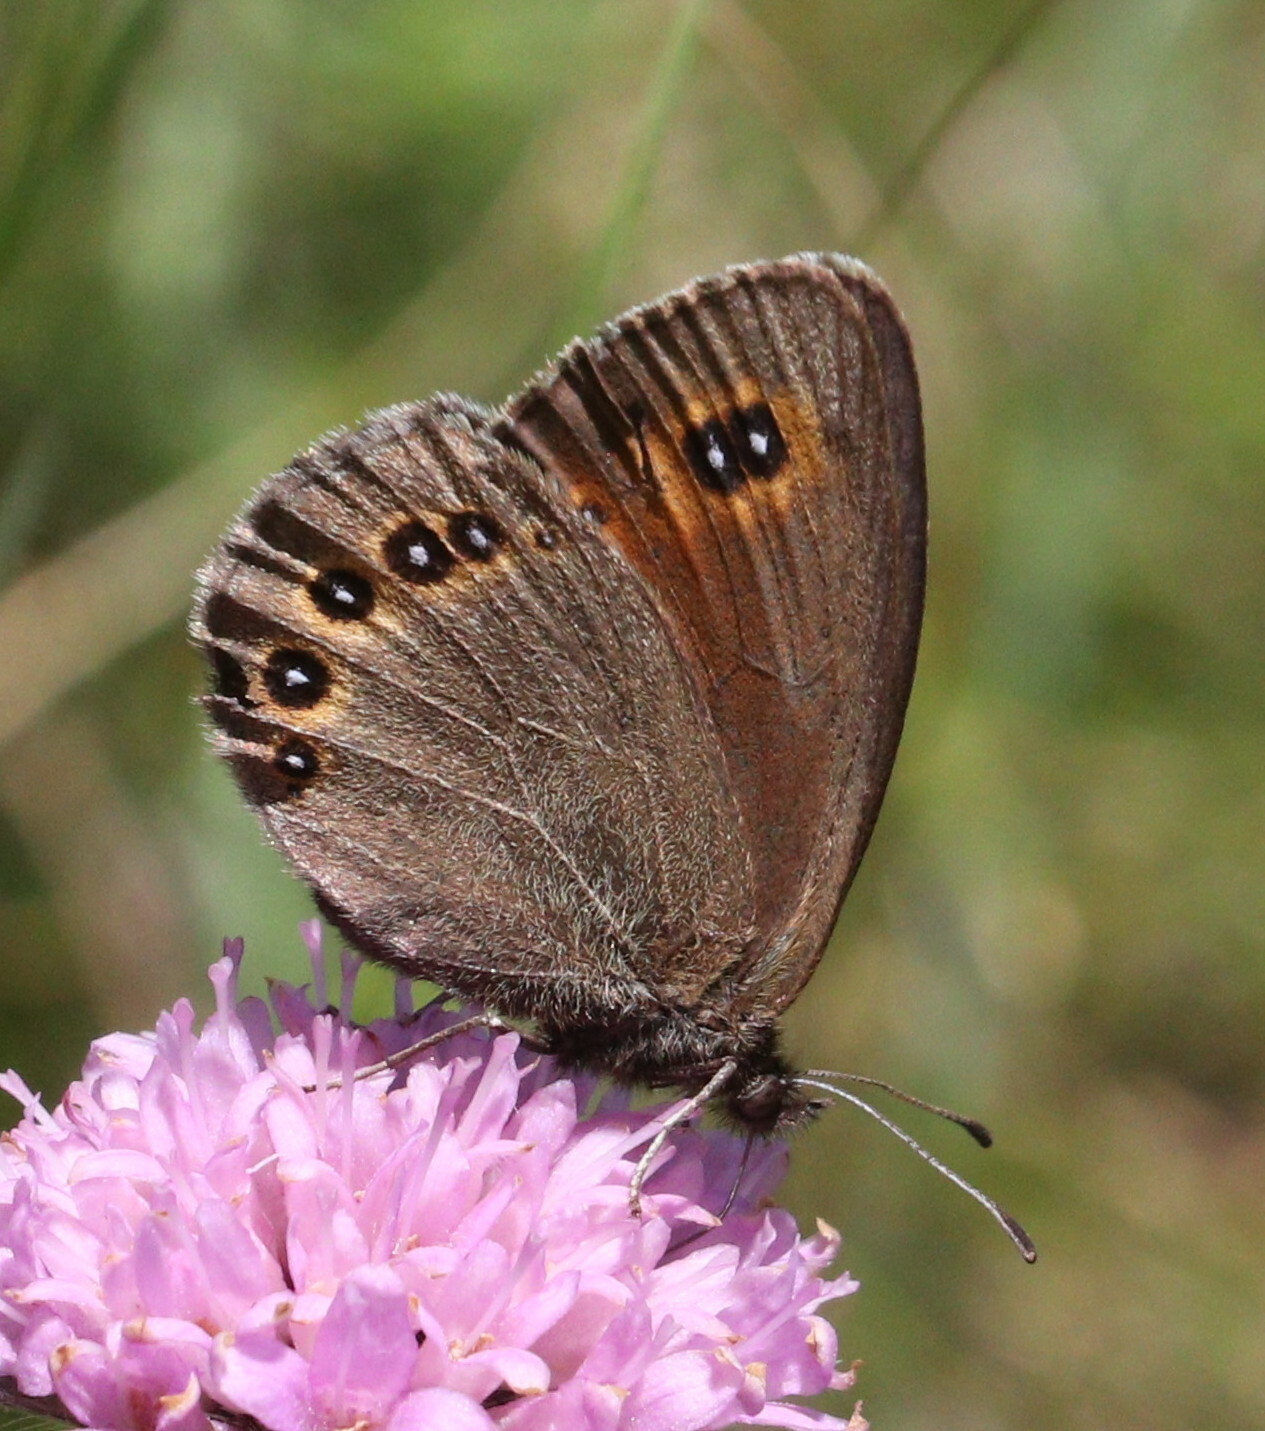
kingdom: Animalia
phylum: Arthropoda
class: Insecta
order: Lepidoptera
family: Nymphalidae
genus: Erebia
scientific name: Erebia oeme
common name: Bright-eyed ringlet
